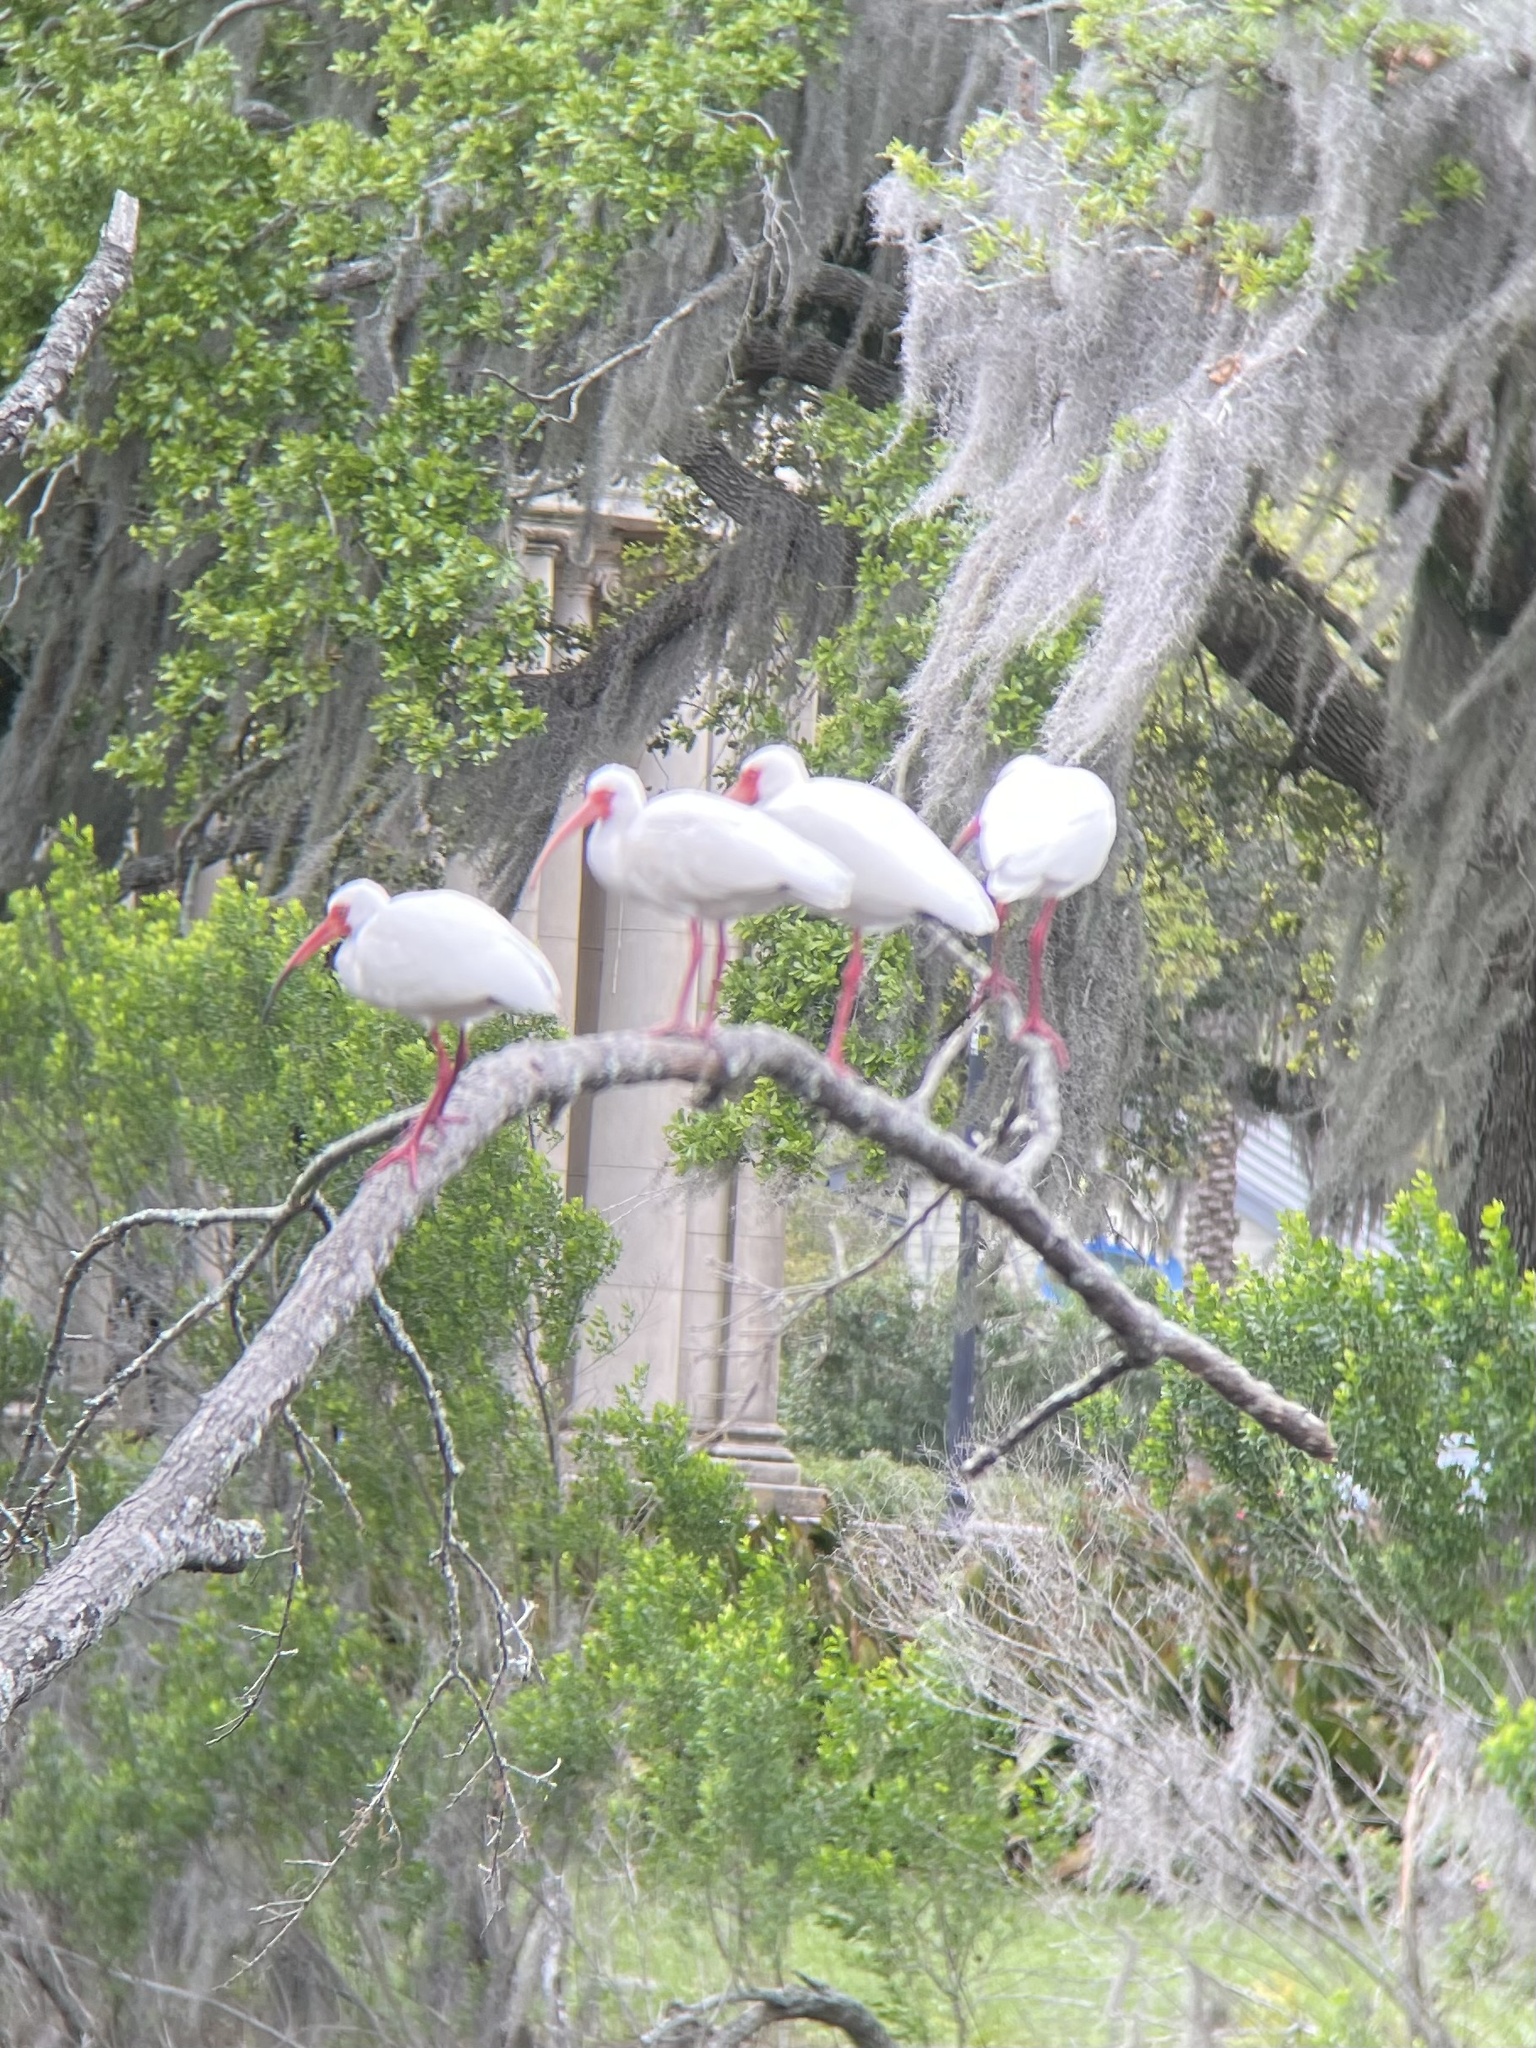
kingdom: Animalia
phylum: Chordata
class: Aves
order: Pelecaniformes
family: Threskiornithidae
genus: Eudocimus
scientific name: Eudocimus albus
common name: White ibis
